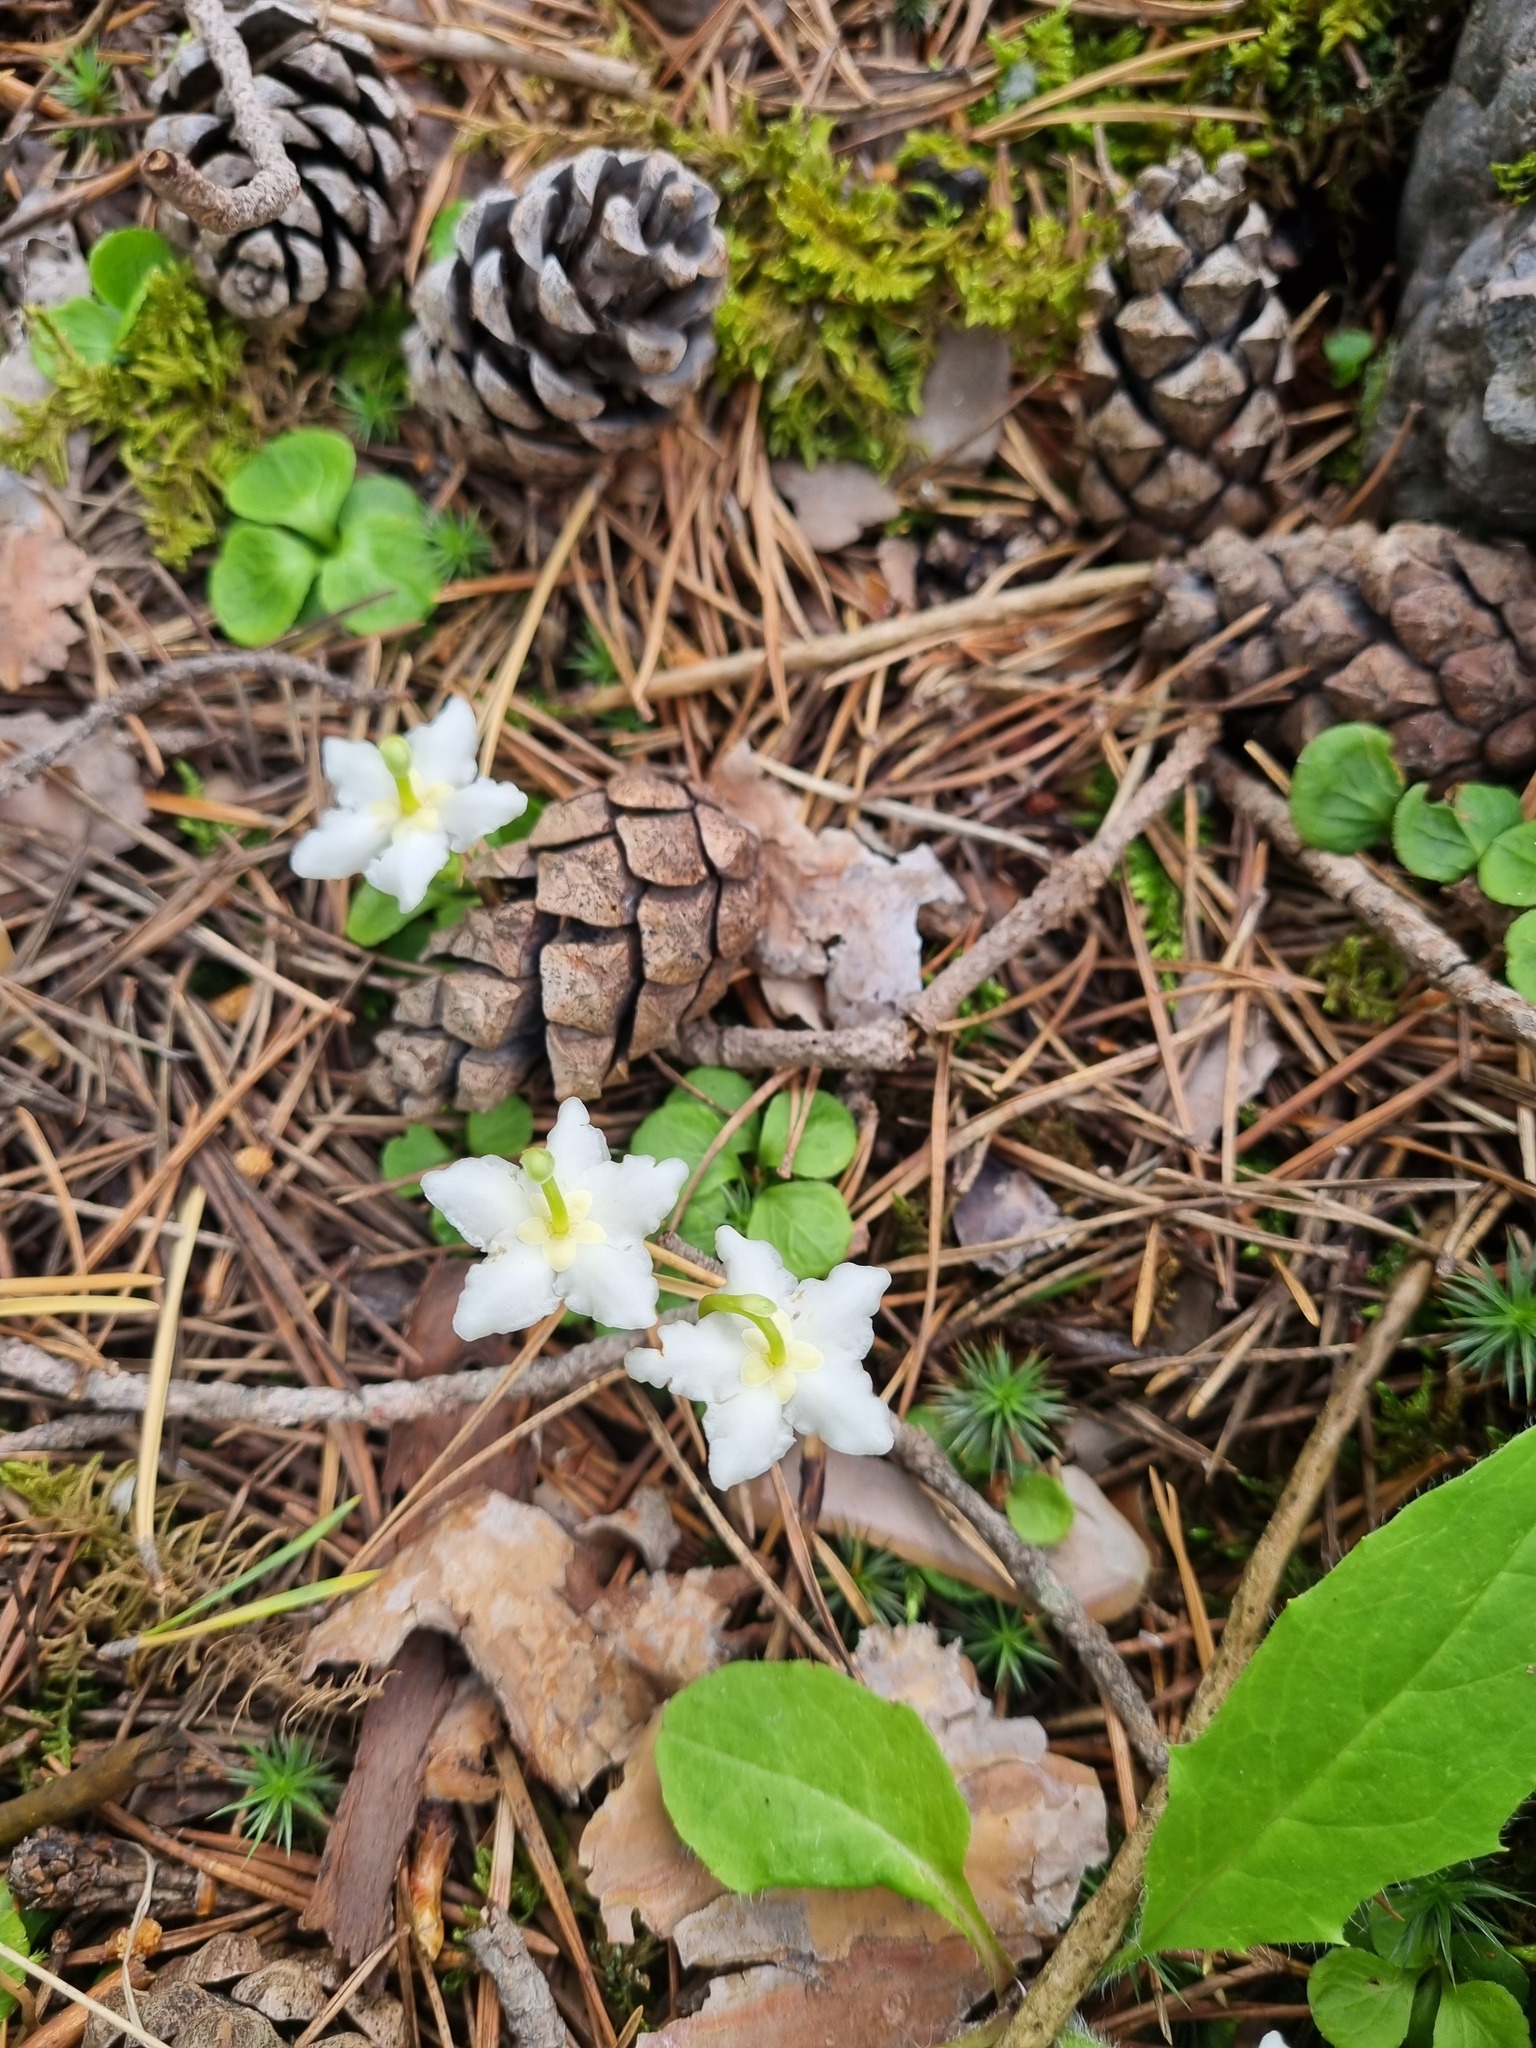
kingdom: Plantae
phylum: Tracheophyta
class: Magnoliopsida
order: Ericales
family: Ericaceae
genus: Moneses
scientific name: Moneses uniflora
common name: One-flowered wintergreen
